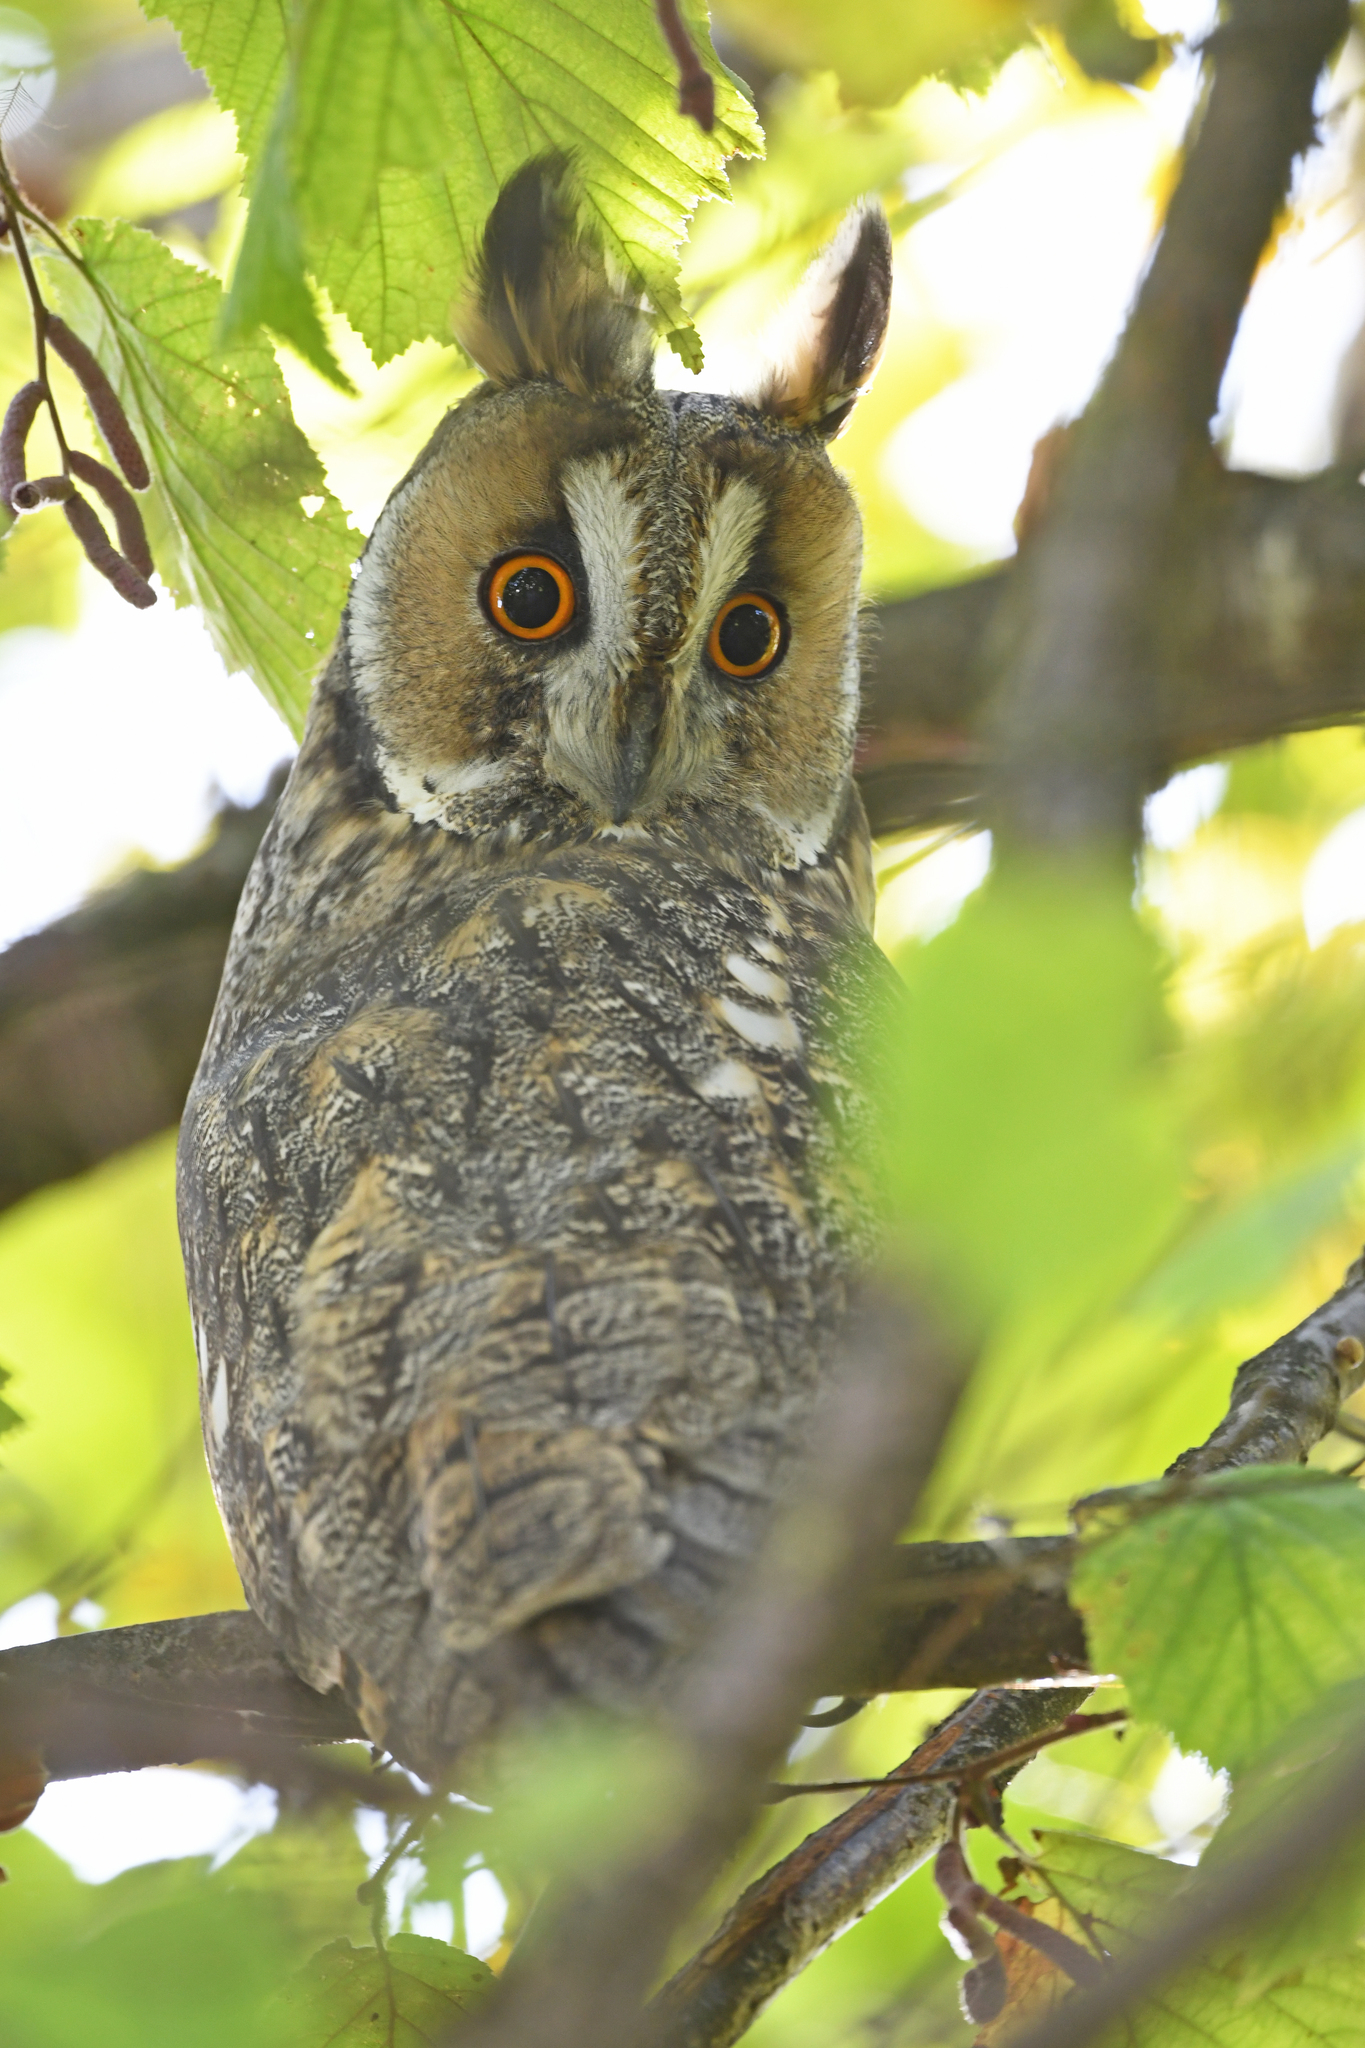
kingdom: Animalia
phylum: Chordata
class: Aves
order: Strigiformes
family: Strigidae
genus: Asio
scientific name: Asio otus
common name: Long-eared owl
